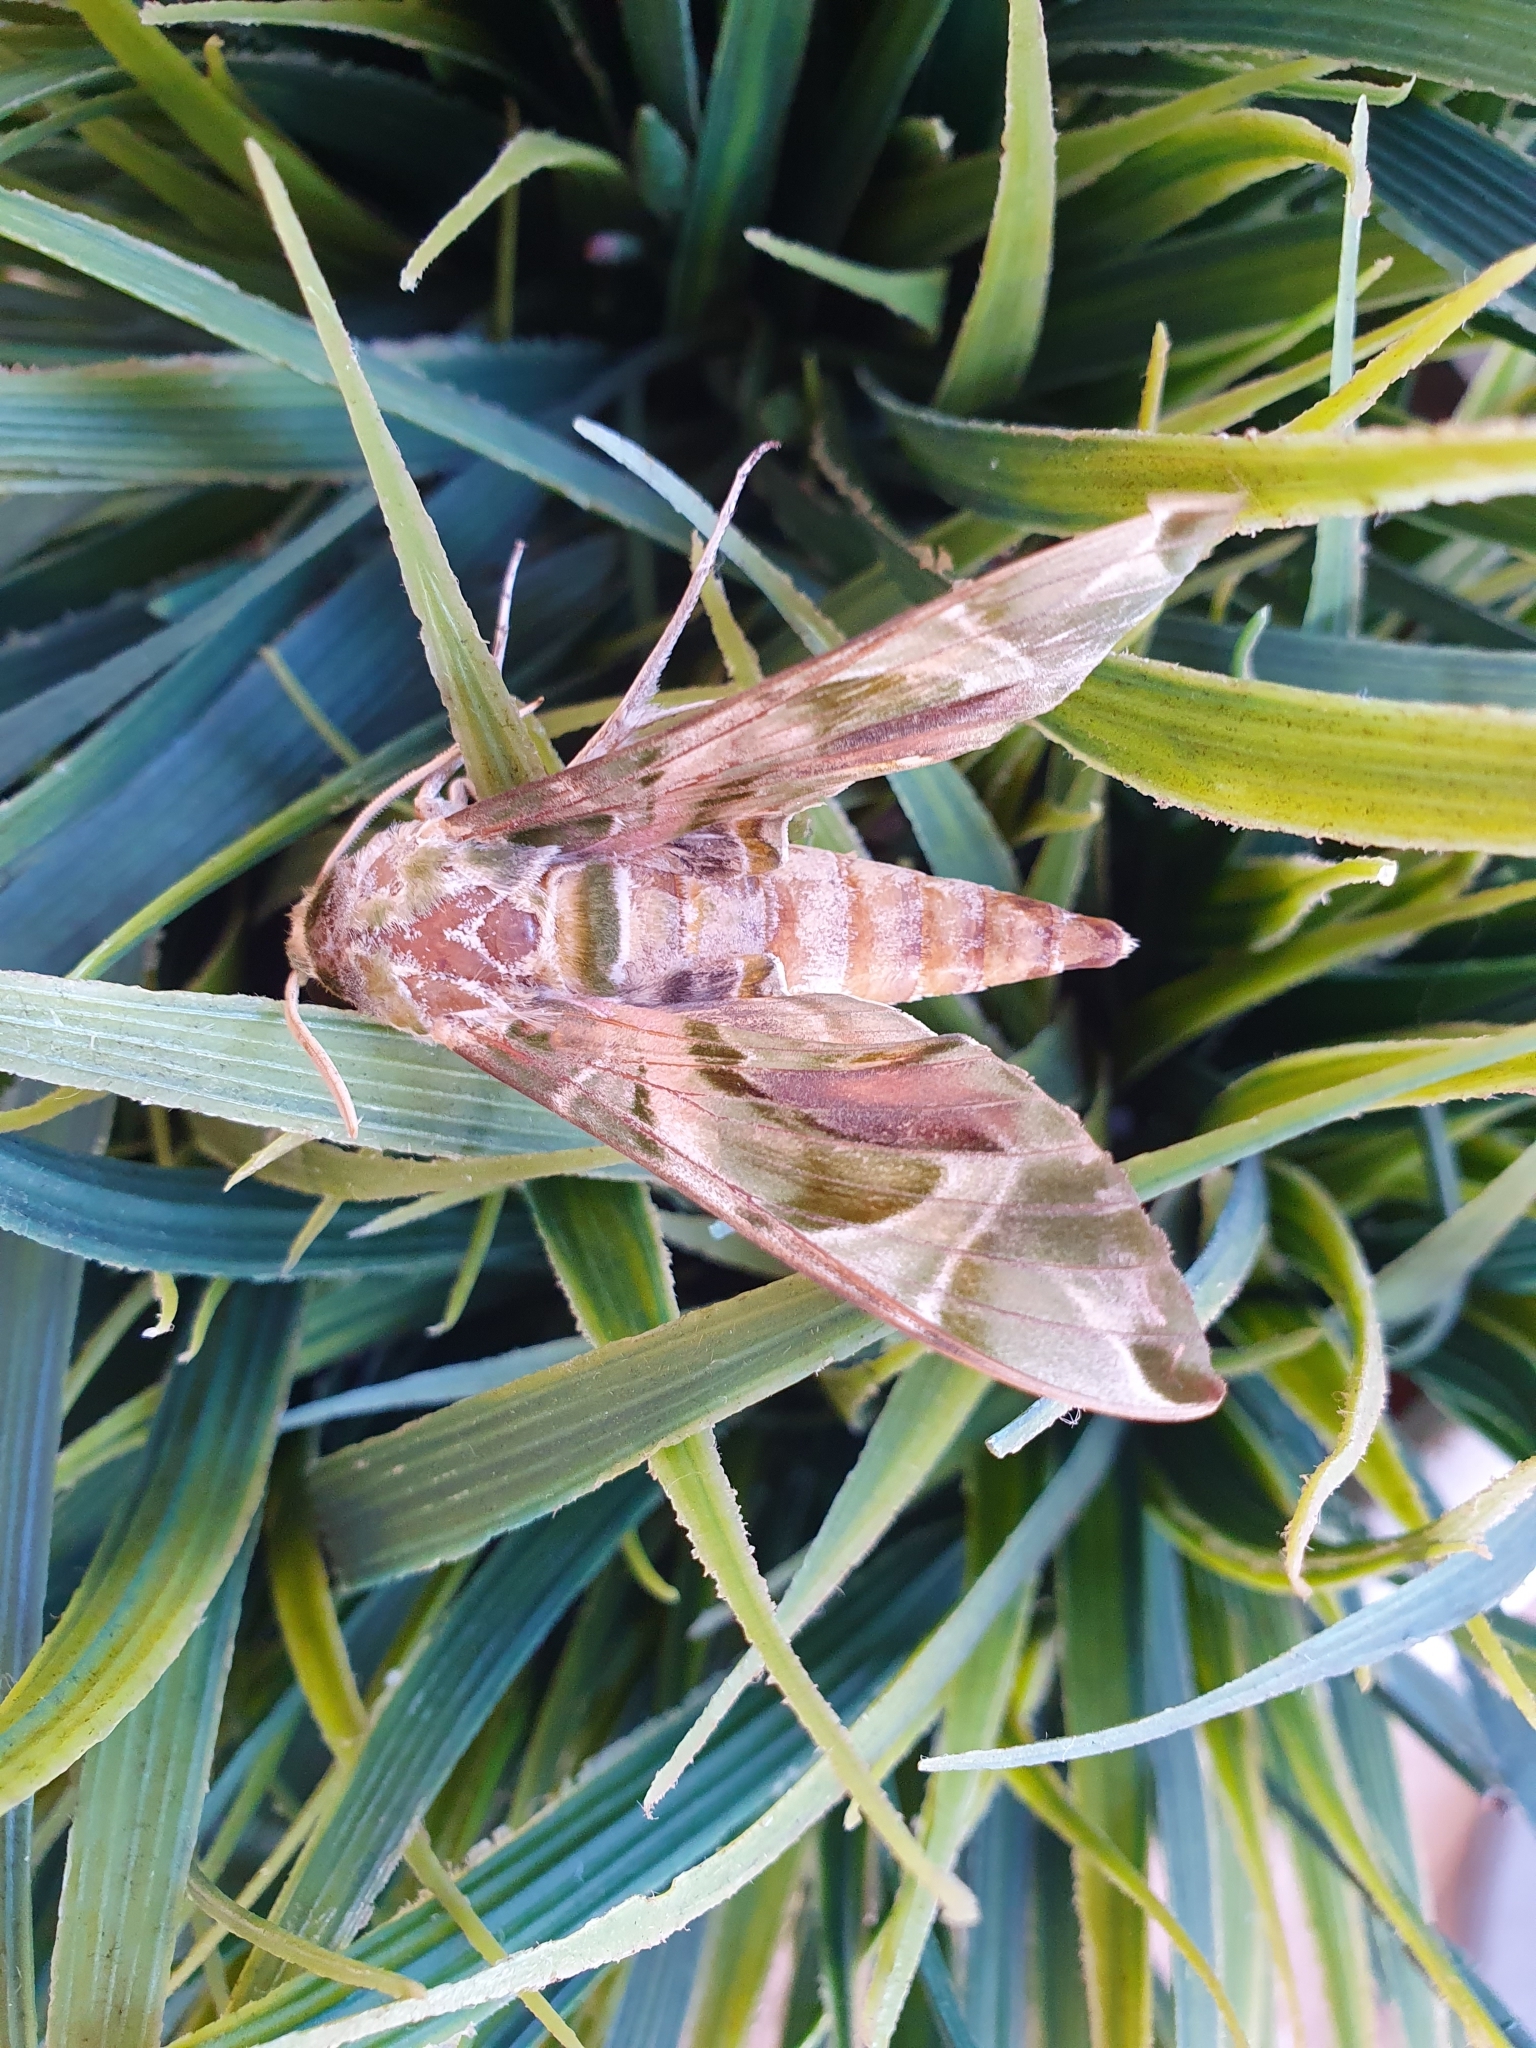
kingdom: Animalia
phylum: Arthropoda
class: Insecta
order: Lepidoptera
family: Sphingidae
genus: Daphnis
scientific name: Daphnis nerii
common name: Oleander hawk-moth
